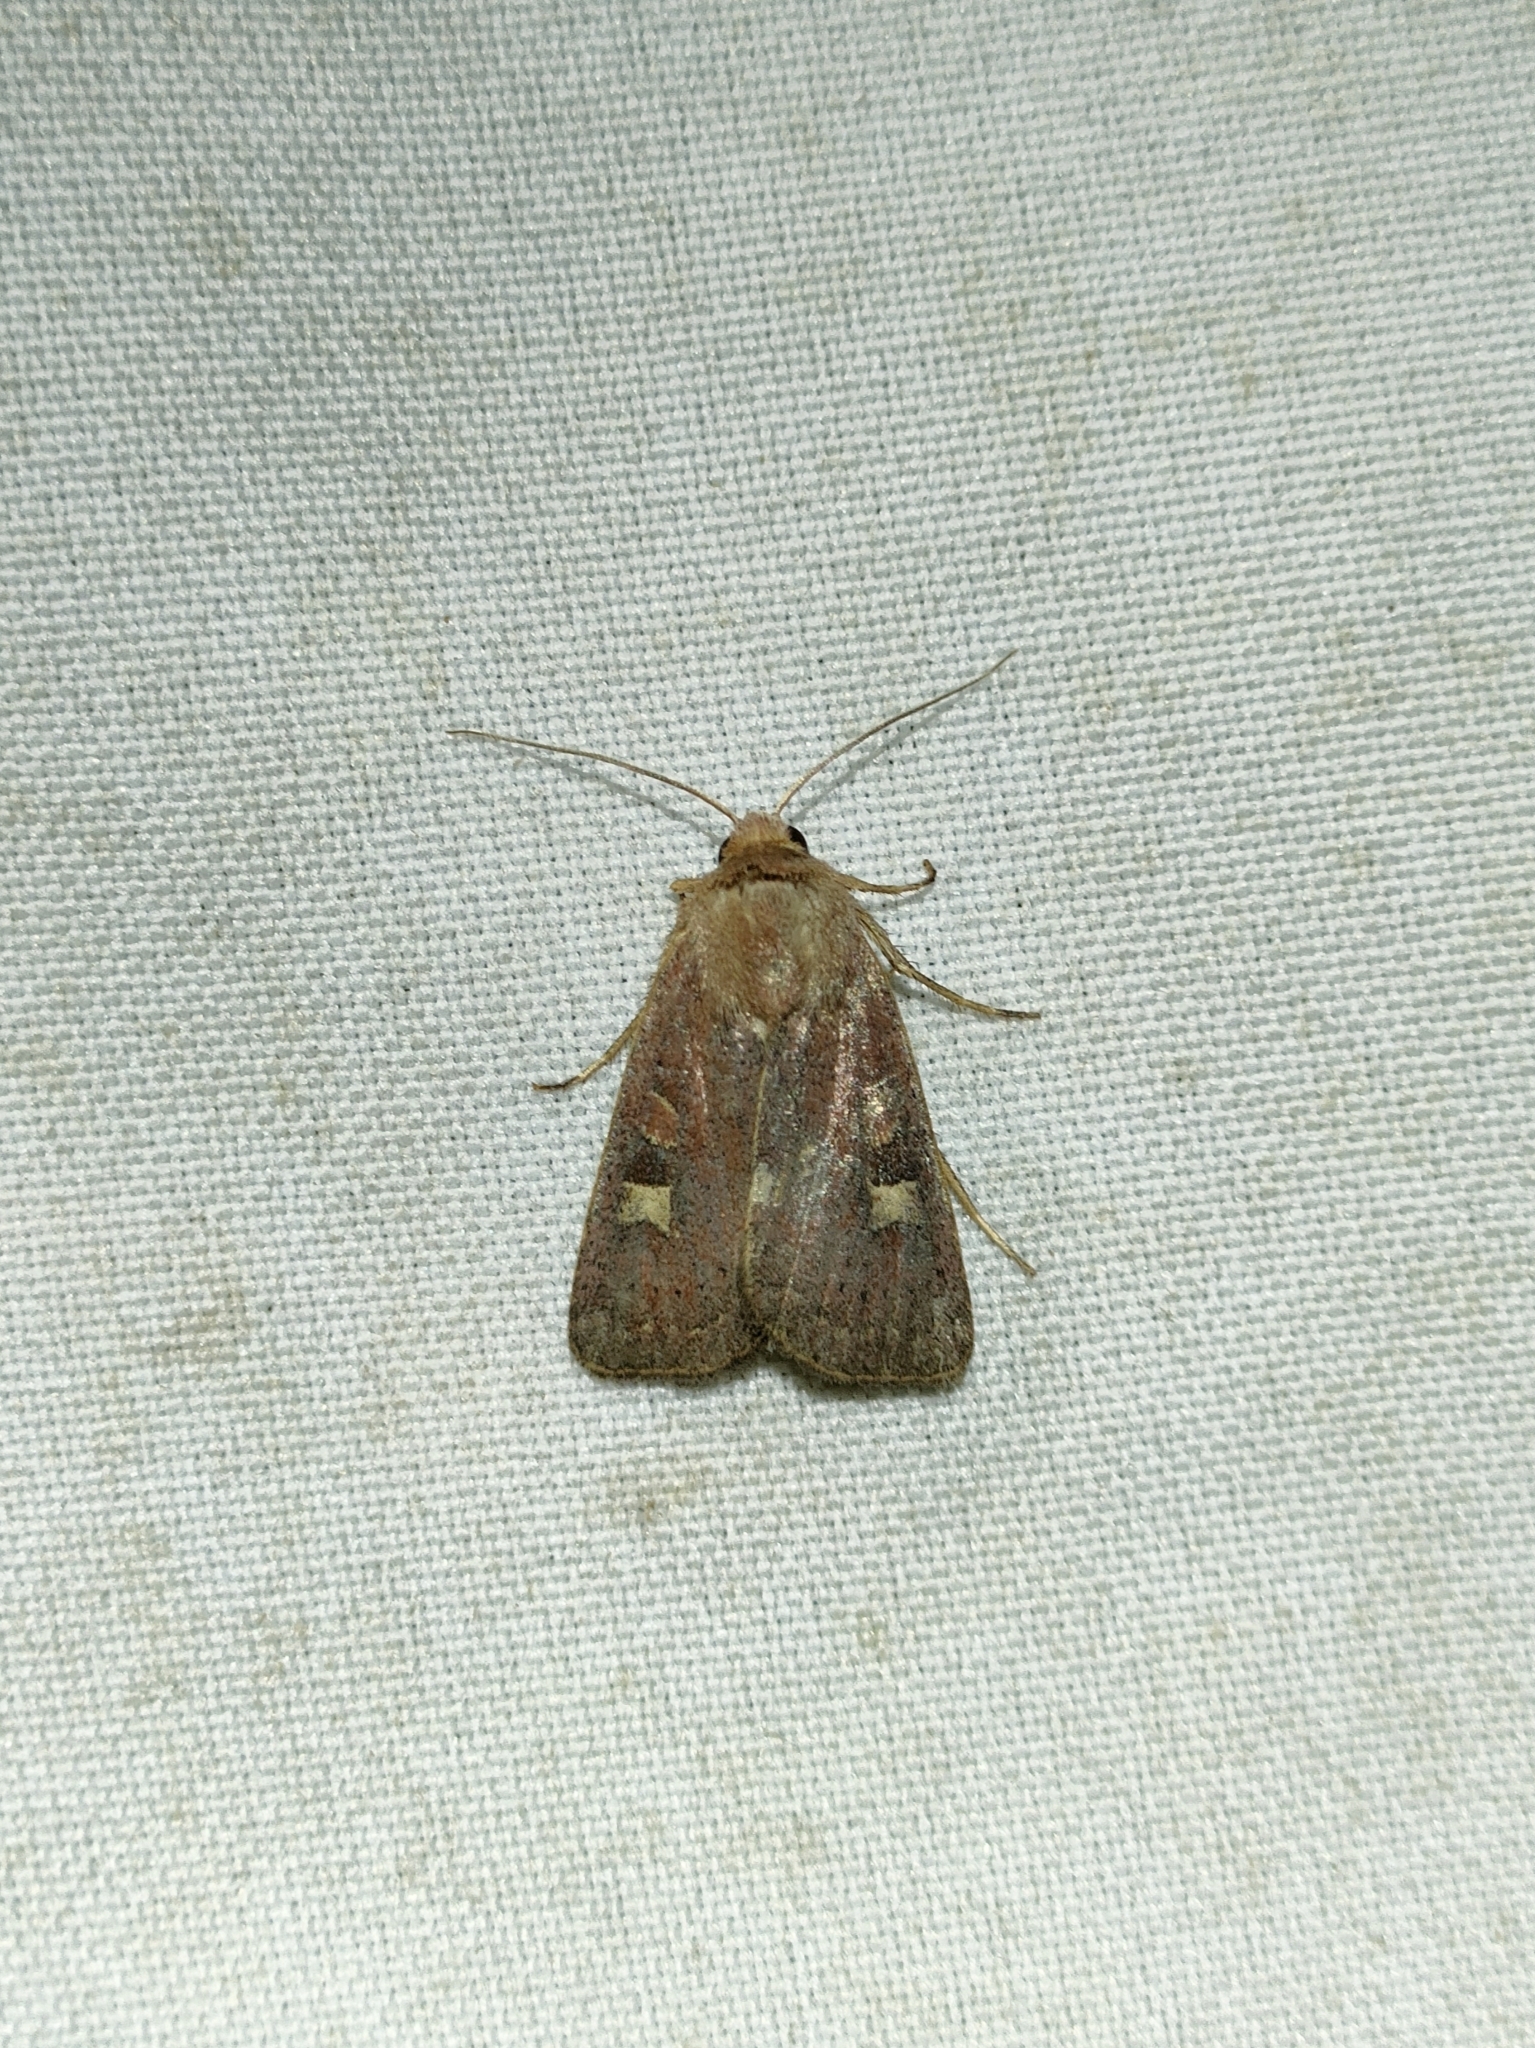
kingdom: Animalia
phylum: Arthropoda
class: Insecta
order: Lepidoptera
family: Noctuidae
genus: Xestia
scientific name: Xestia xanthographa
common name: Square-spot rustic
